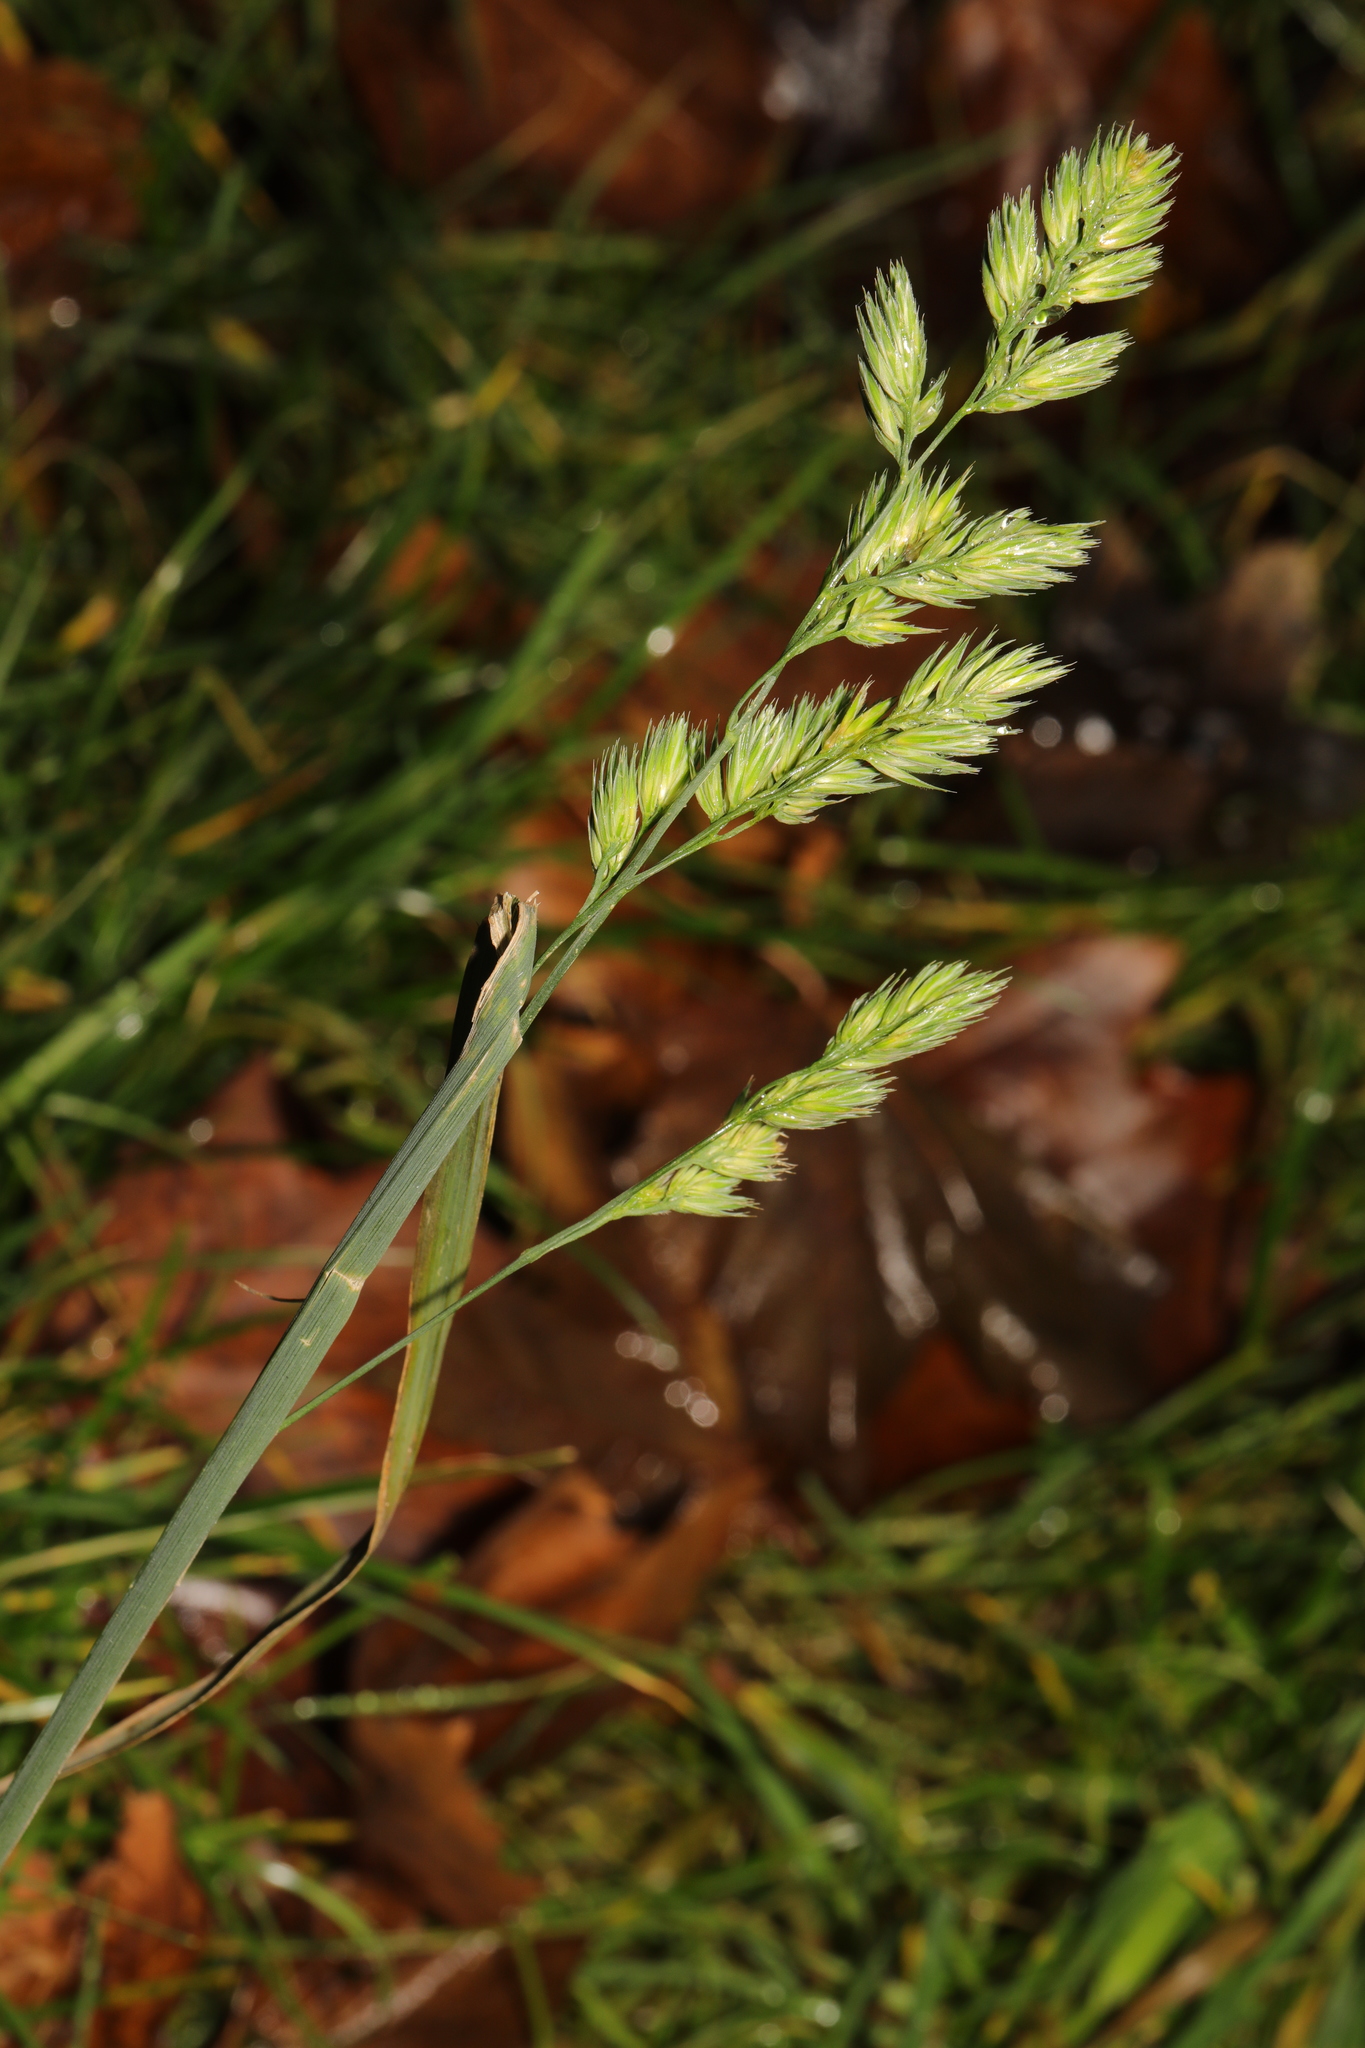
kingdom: Plantae
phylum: Tracheophyta
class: Liliopsida
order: Poales
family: Poaceae
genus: Dactylis
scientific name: Dactylis glomerata
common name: Orchardgrass
